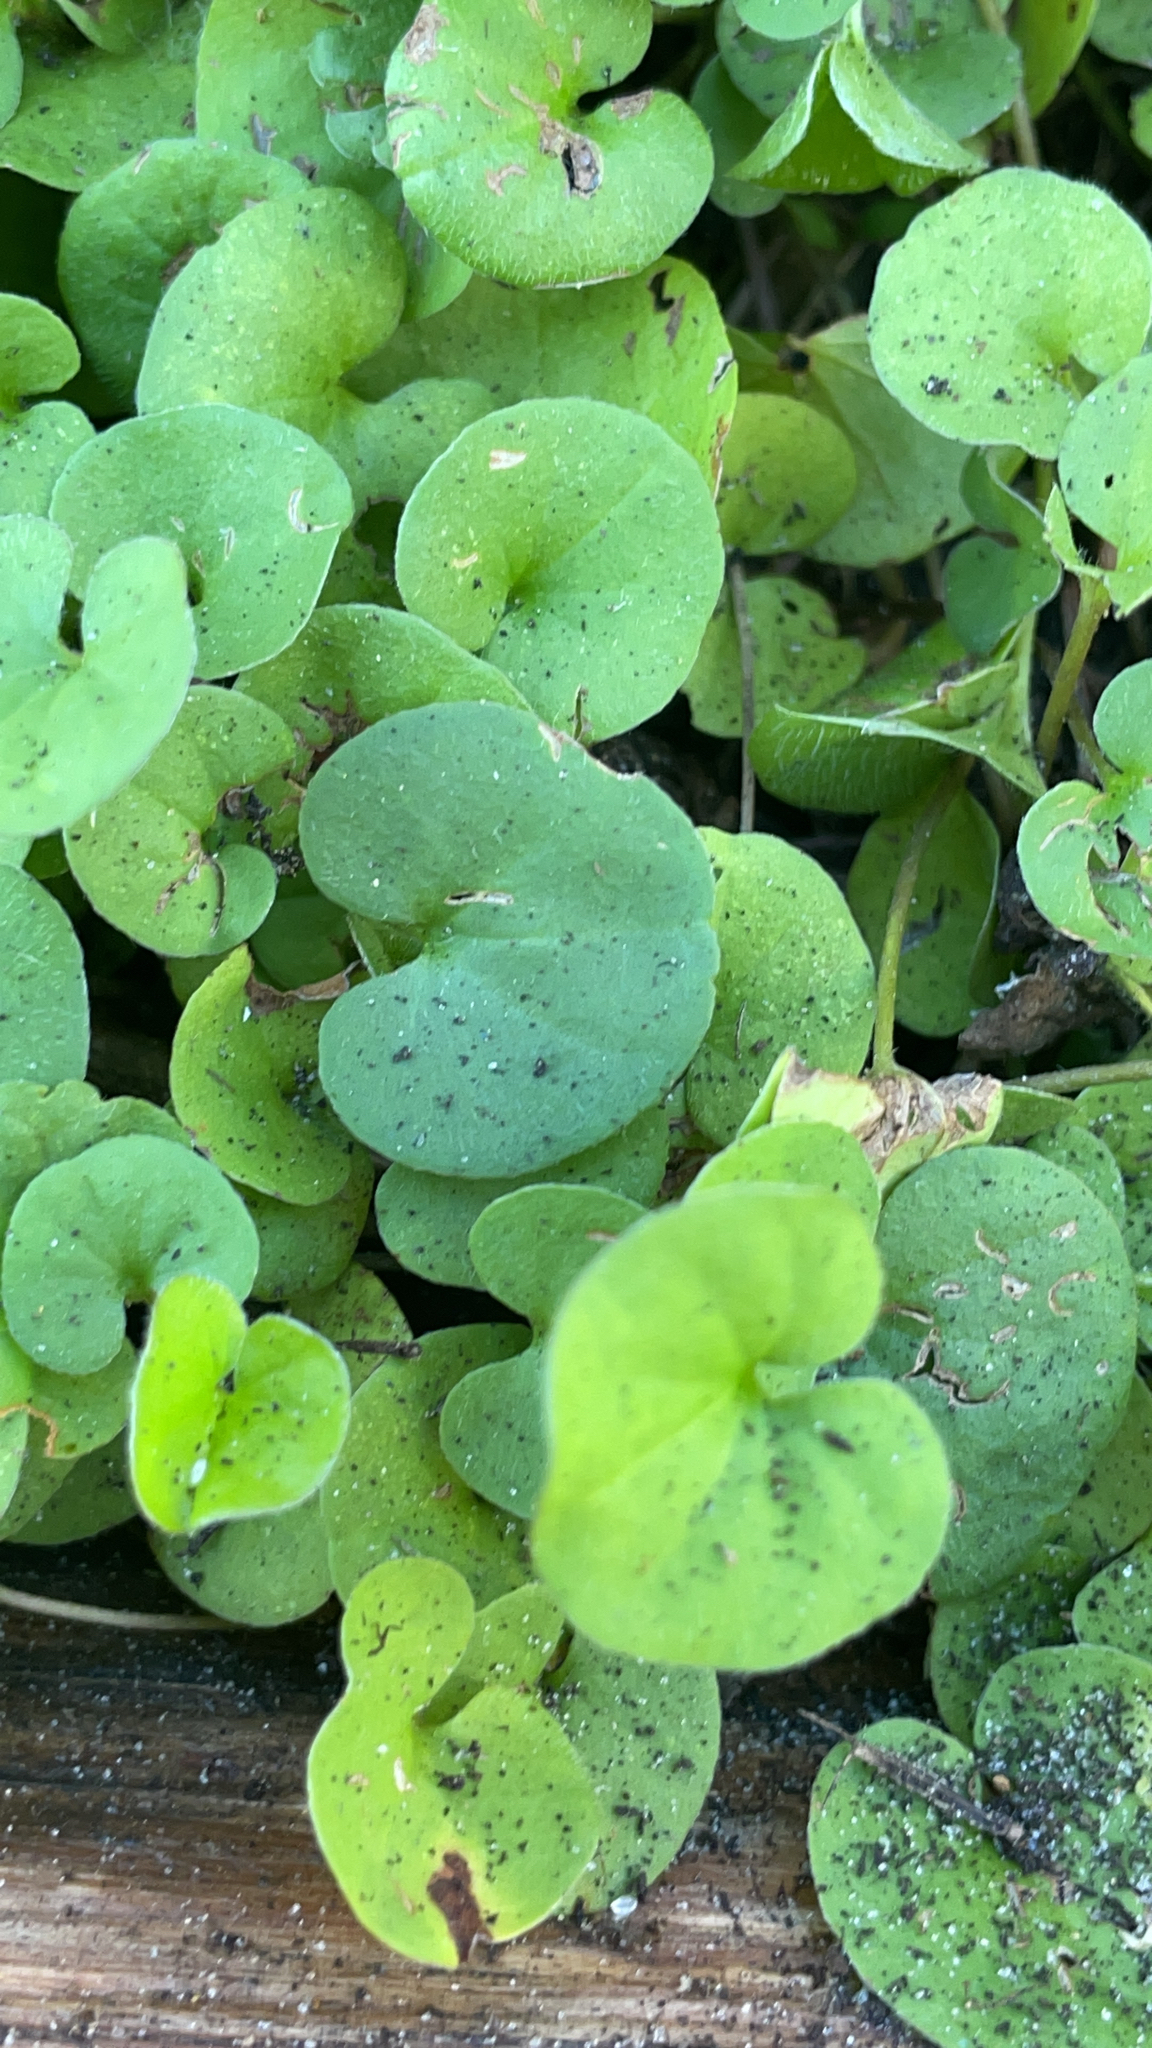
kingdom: Plantae
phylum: Tracheophyta
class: Magnoliopsida
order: Solanales
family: Convolvulaceae
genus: Dichondra
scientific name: Dichondra carolinensis
